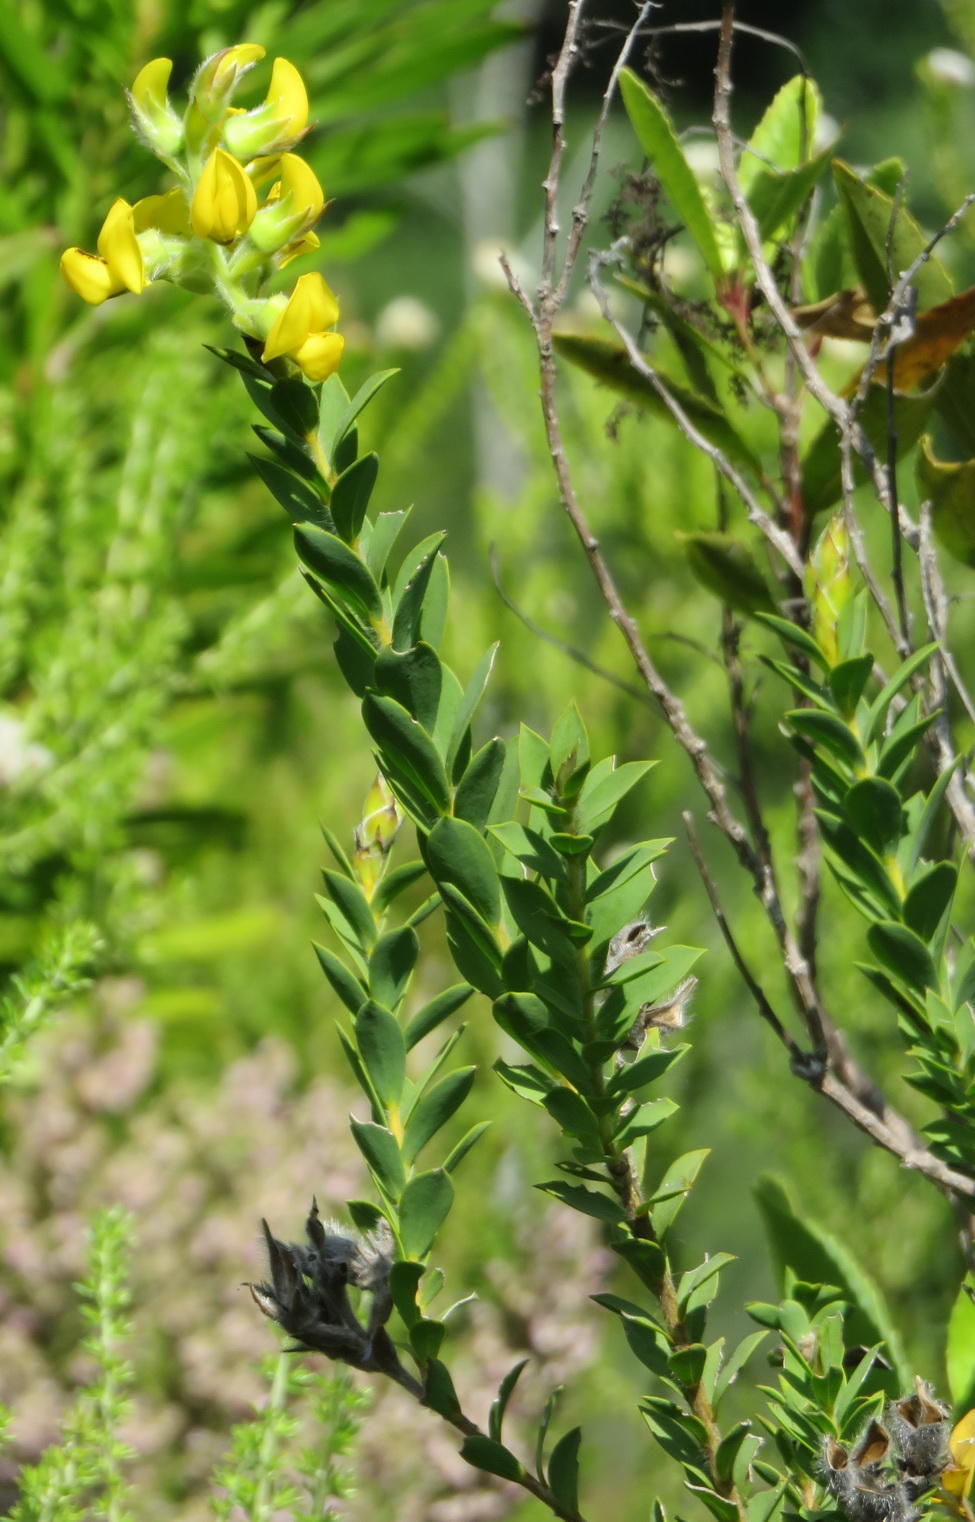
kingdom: Plantae
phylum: Tracheophyta
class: Magnoliopsida
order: Fabales
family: Fabaceae
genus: Liparia
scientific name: Liparia hirsuta
